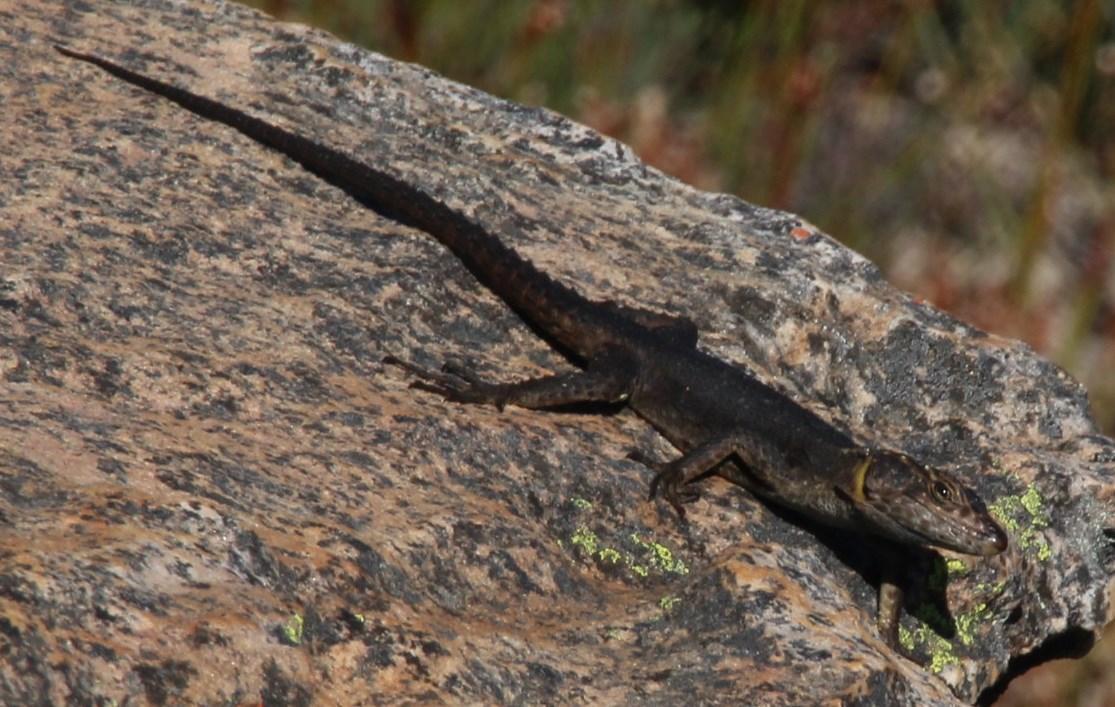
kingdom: Animalia
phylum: Chordata
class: Squamata
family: Cordylidae
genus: Hemicordylus
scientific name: Hemicordylus capensis
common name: Graceful crag lizard
